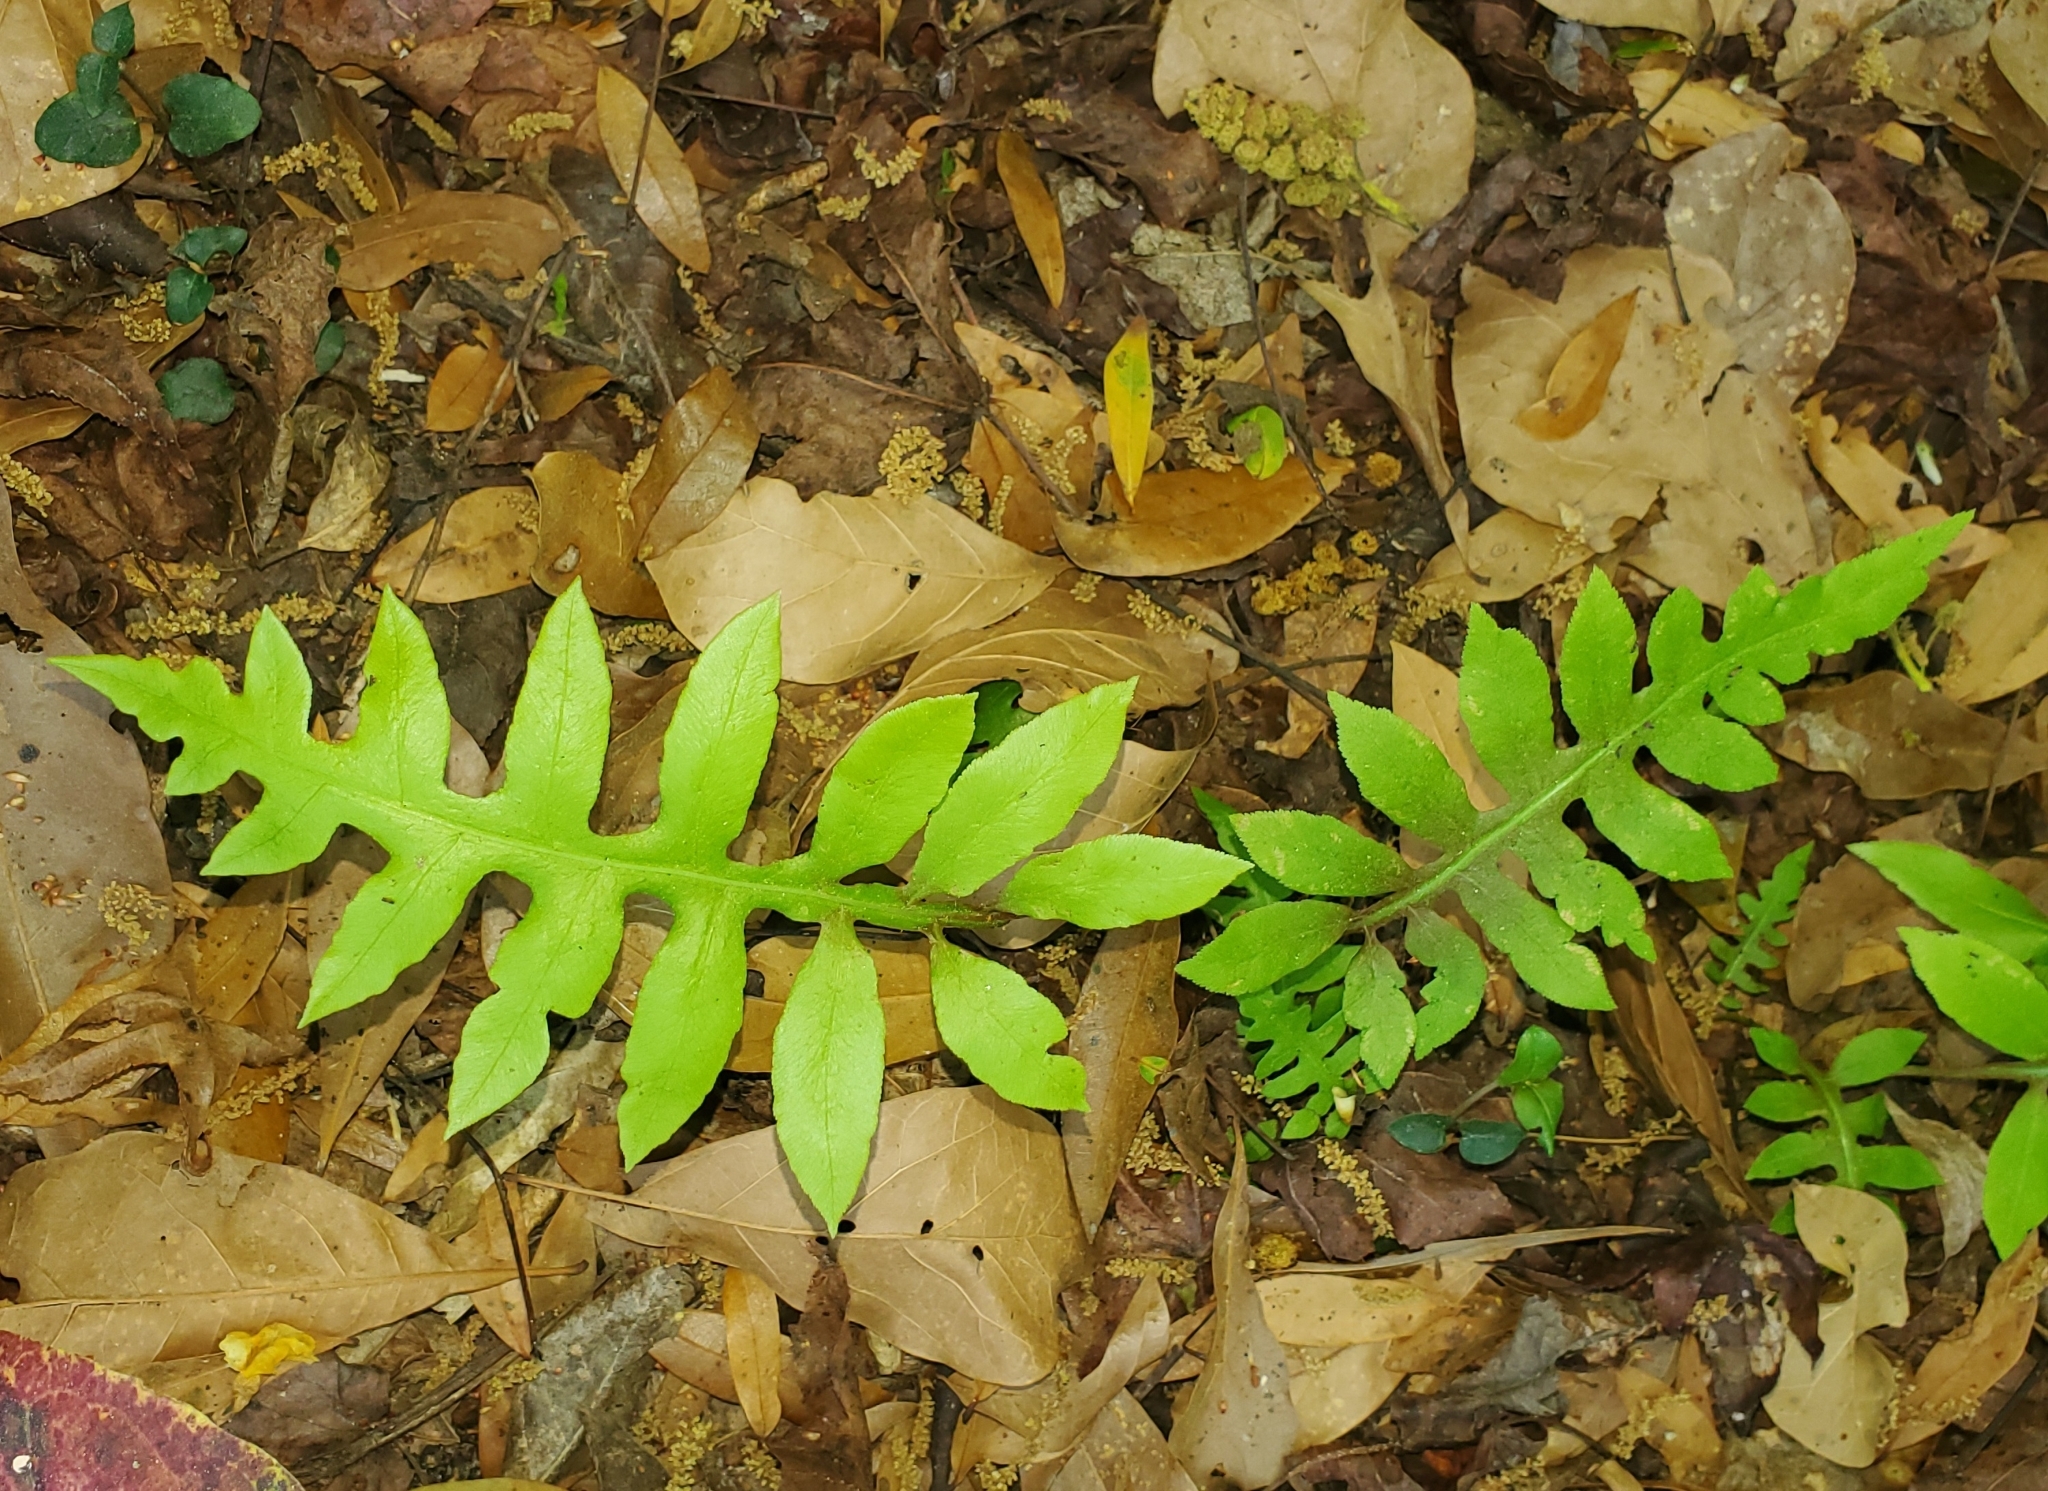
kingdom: Plantae
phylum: Tracheophyta
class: Polypodiopsida
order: Polypodiales
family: Blechnaceae
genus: Lorinseria
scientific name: Lorinseria areolata
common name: Dwarf chain fern
